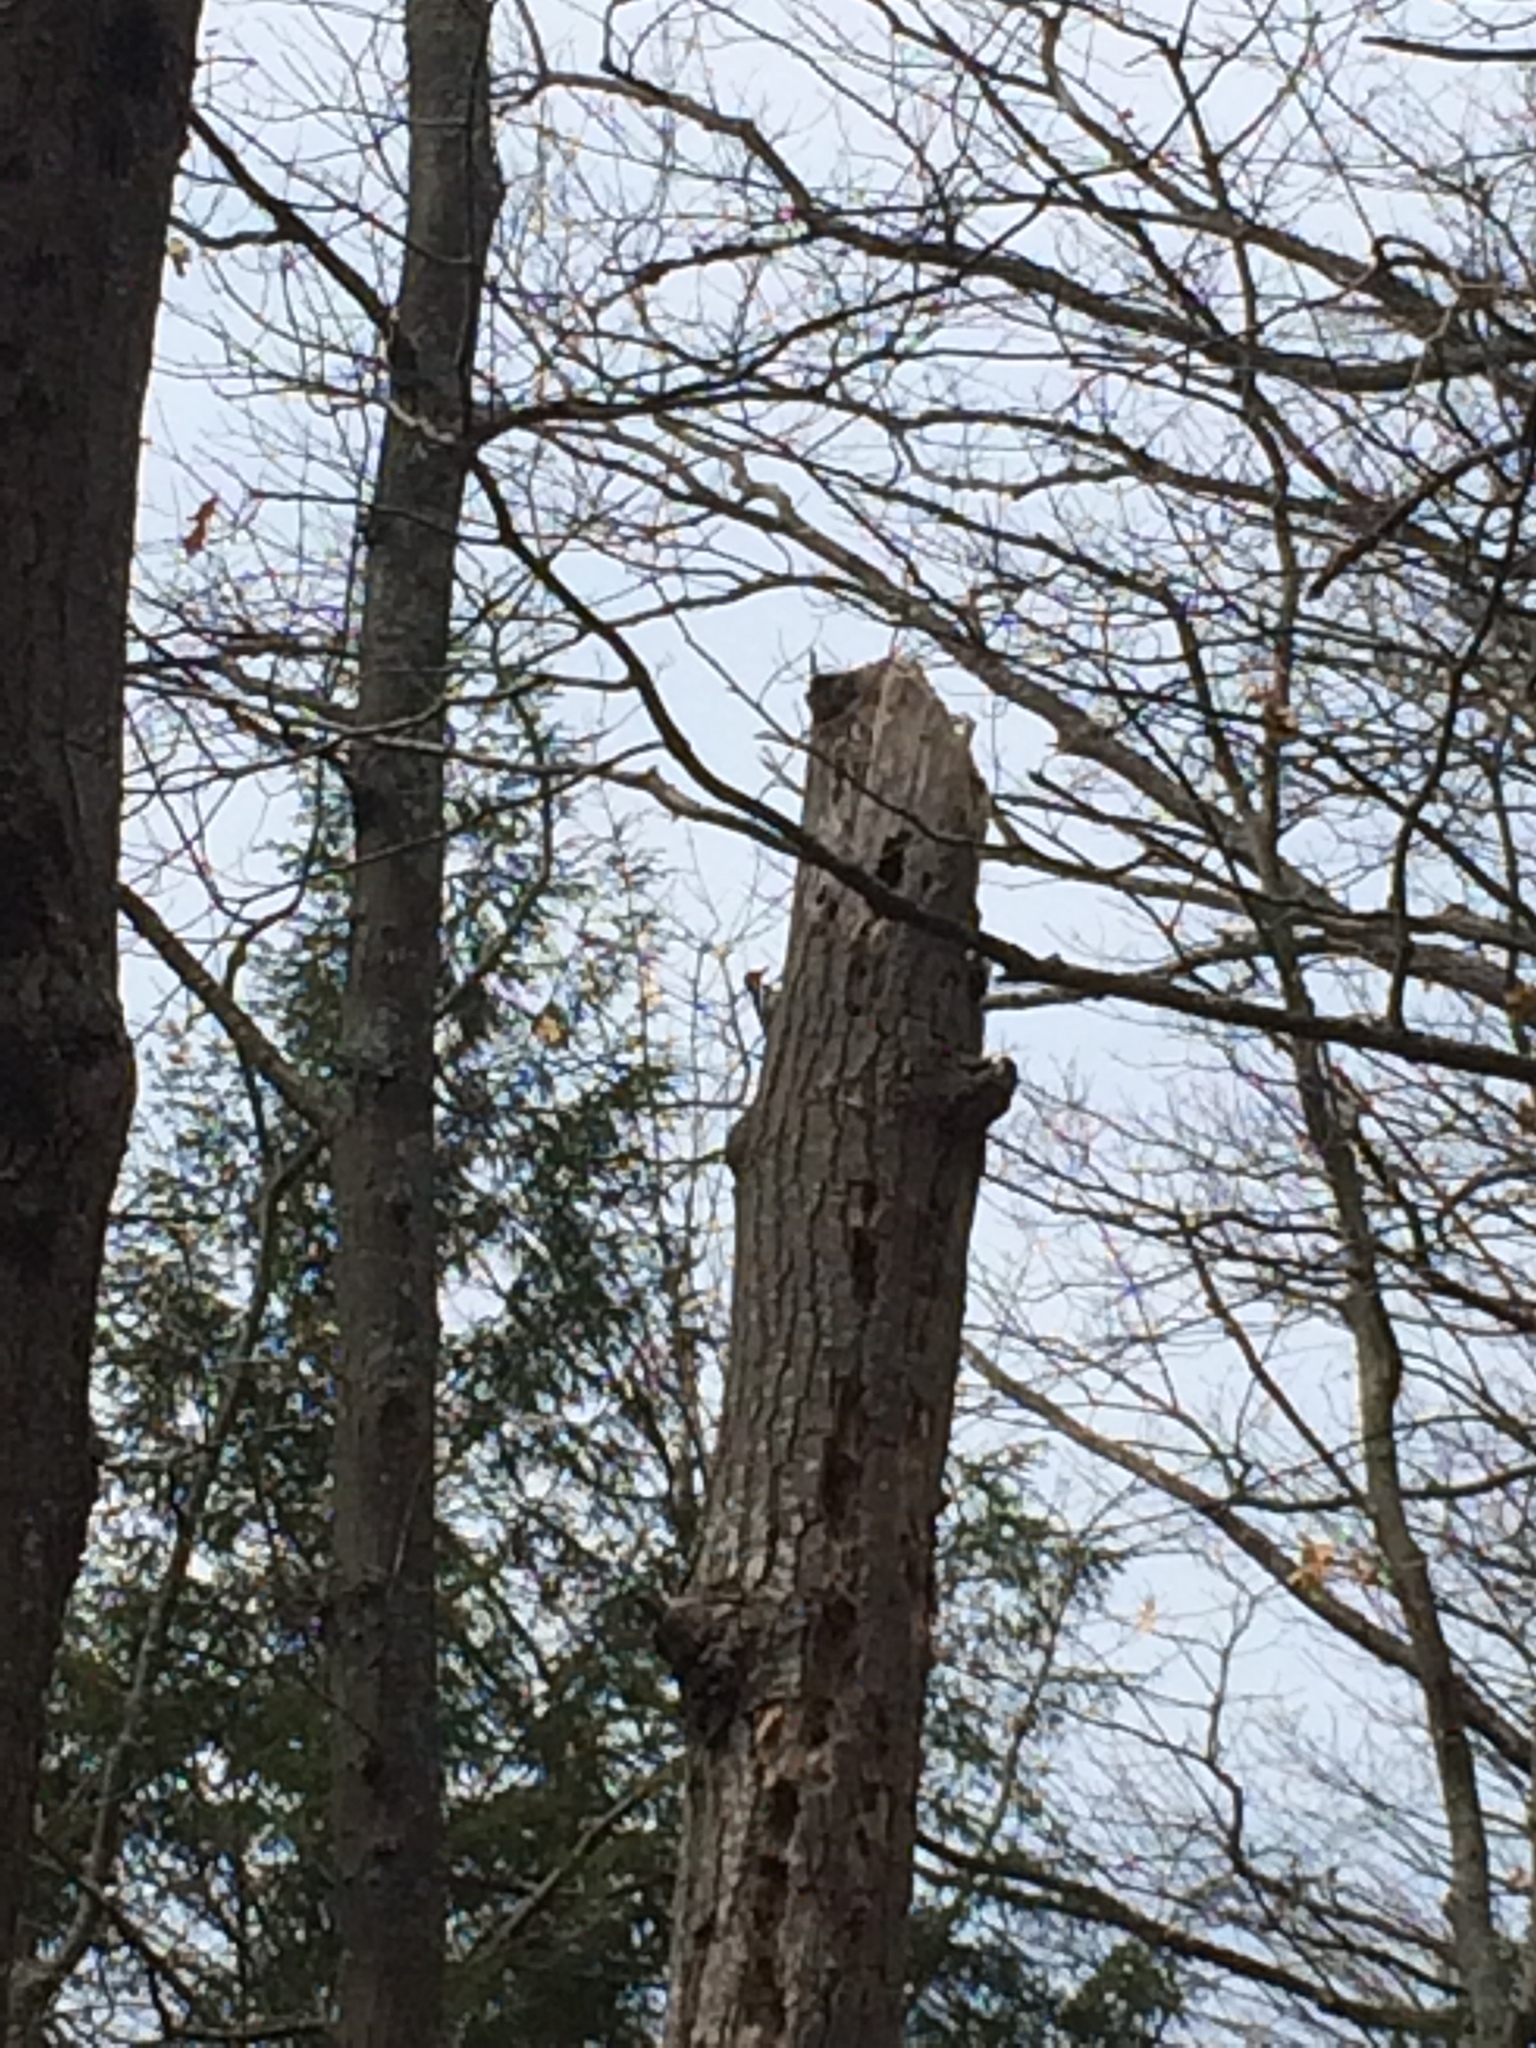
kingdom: Animalia
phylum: Chordata
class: Aves
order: Piciformes
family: Picidae
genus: Sphyrapicus
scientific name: Sphyrapicus varius
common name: Yellow-bellied sapsucker
